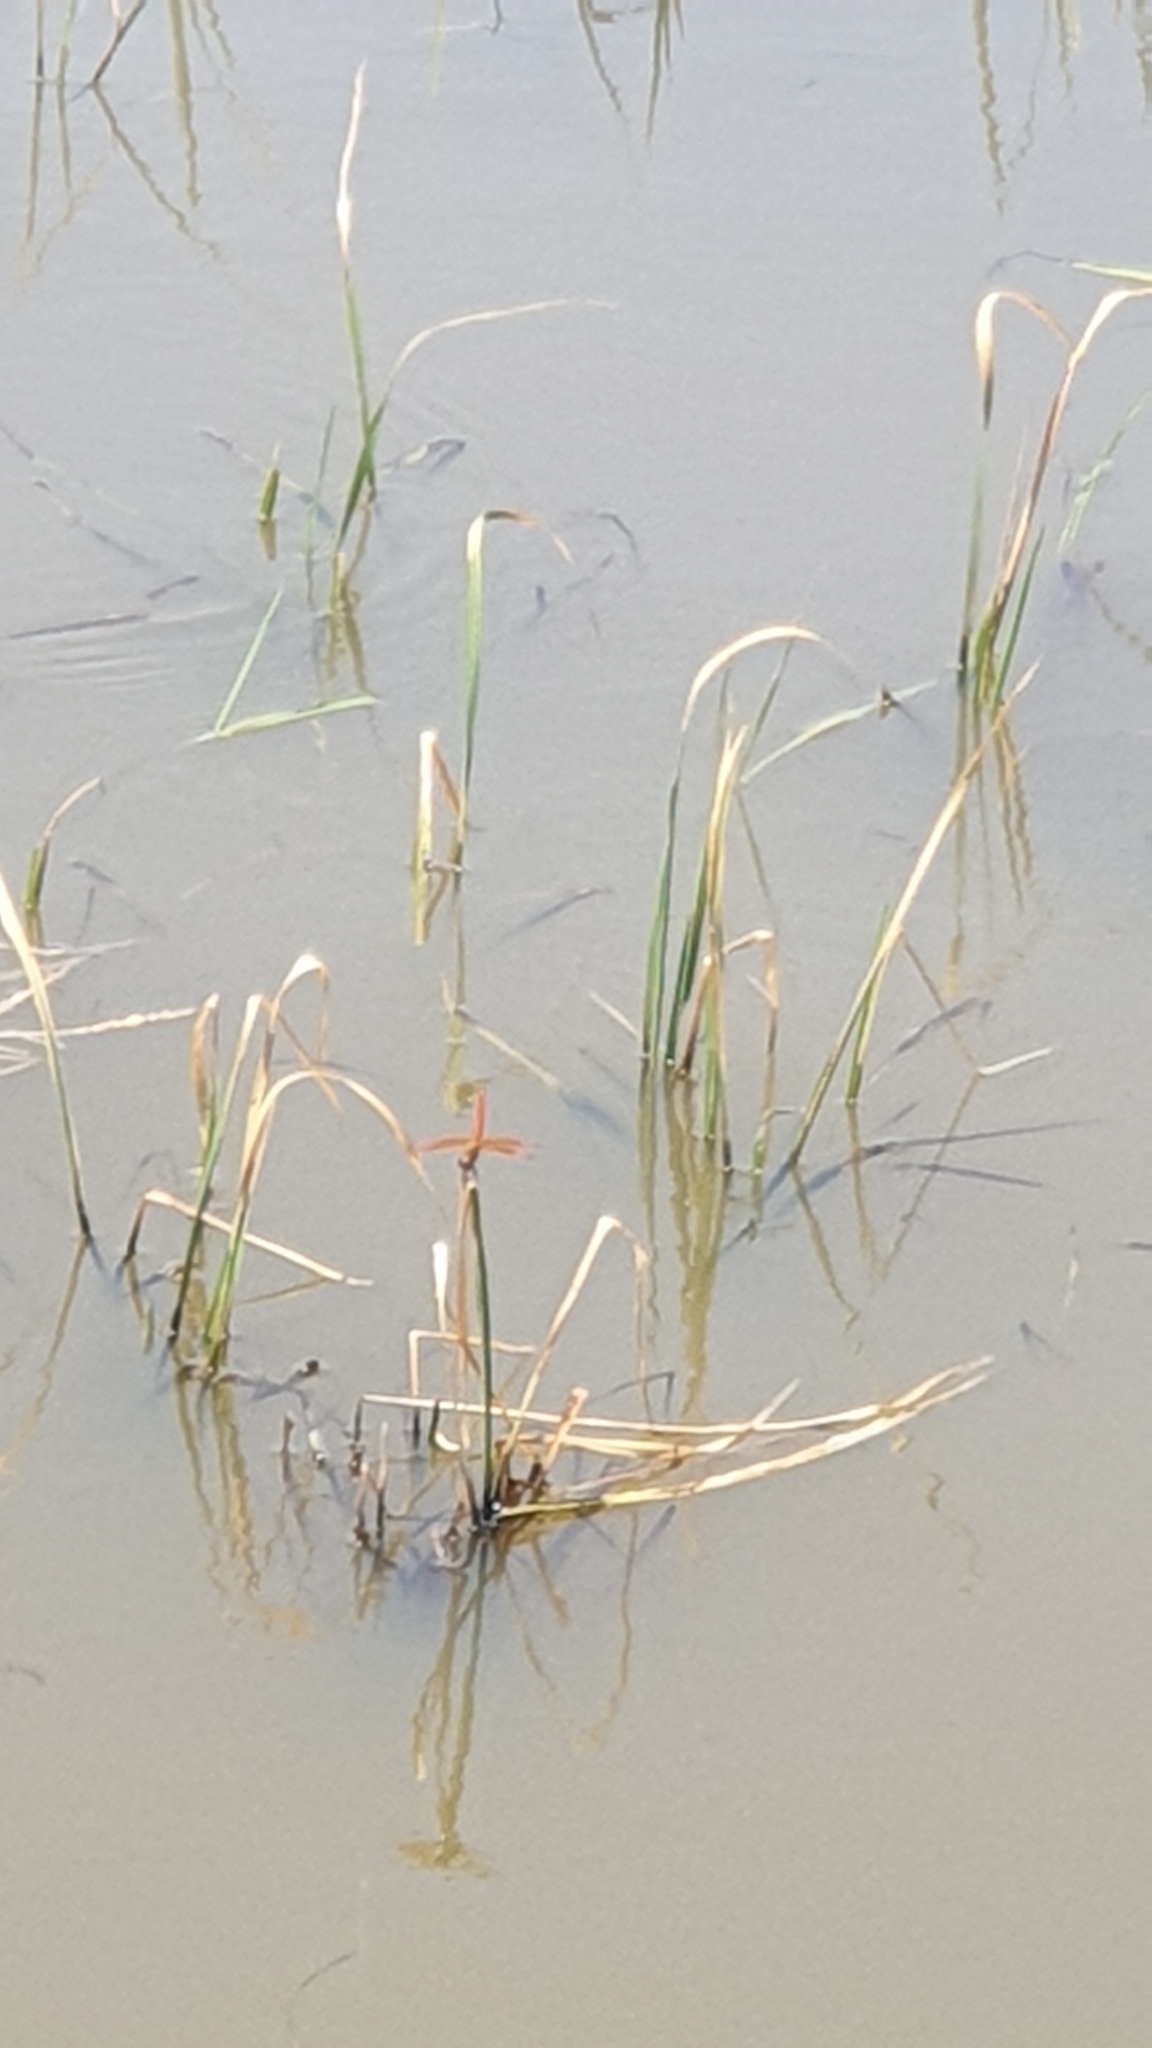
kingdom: Animalia
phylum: Arthropoda
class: Insecta
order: Odonata
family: Libellulidae
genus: Brachythemis
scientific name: Brachythemis contaminata
